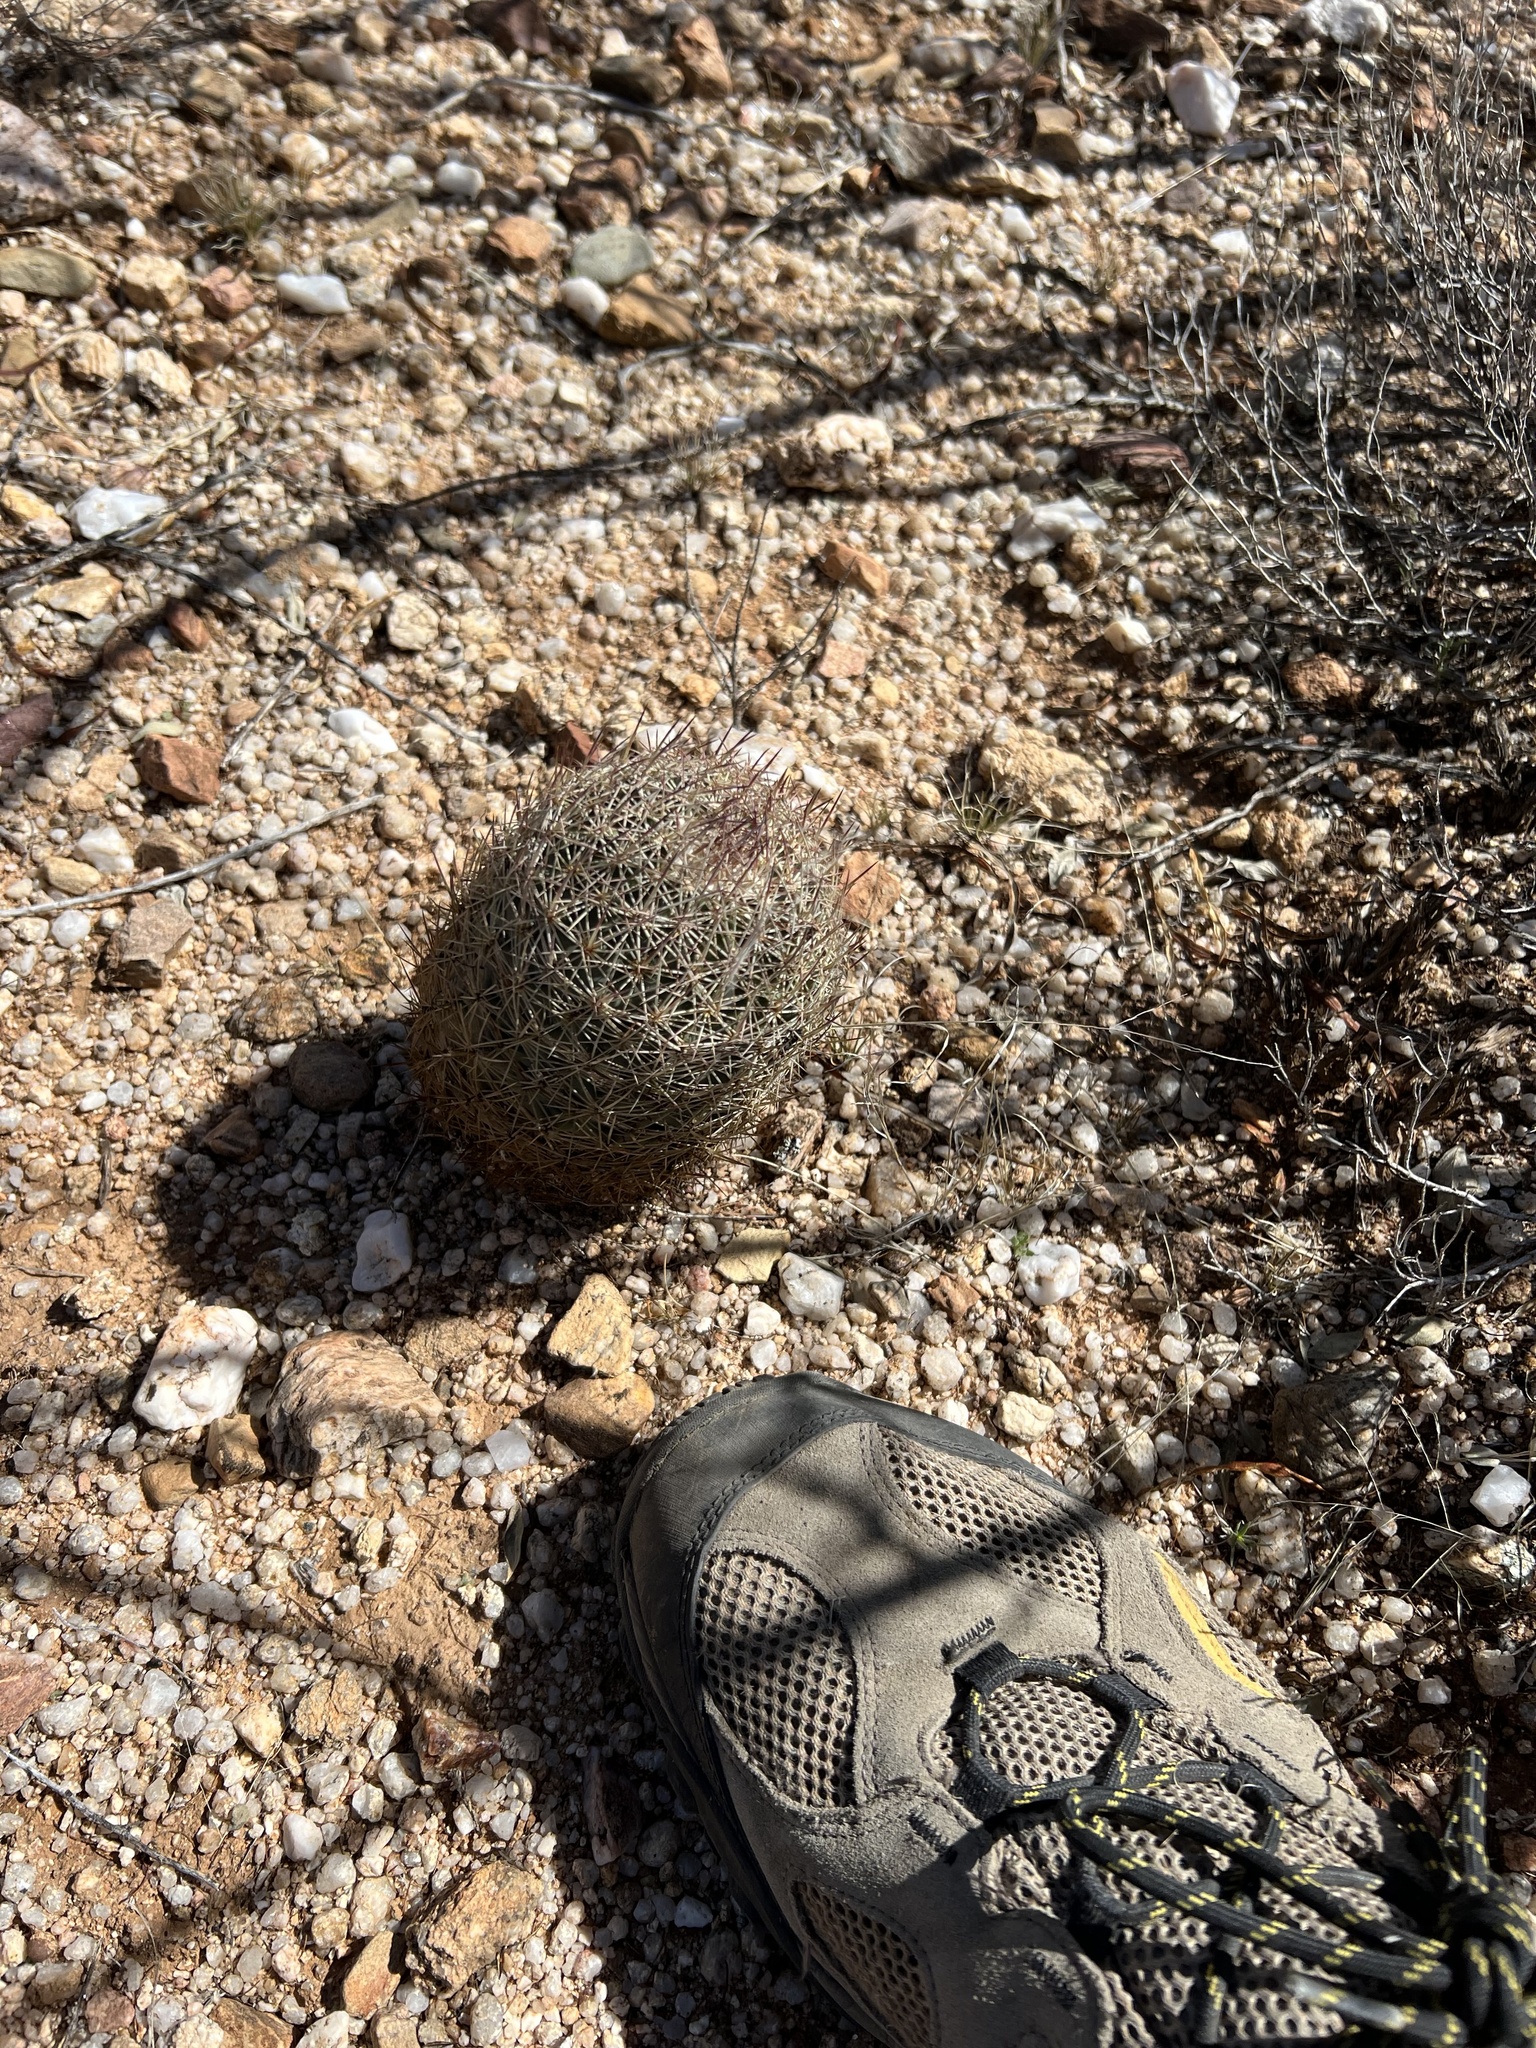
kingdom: Plantae
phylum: Tracheophyta
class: Magnoliopsida
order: Caryophyllales
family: Cactaceae
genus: Sclerocactus
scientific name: Sclerocactus johnsonii
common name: Eight-spine fishhook cactus
